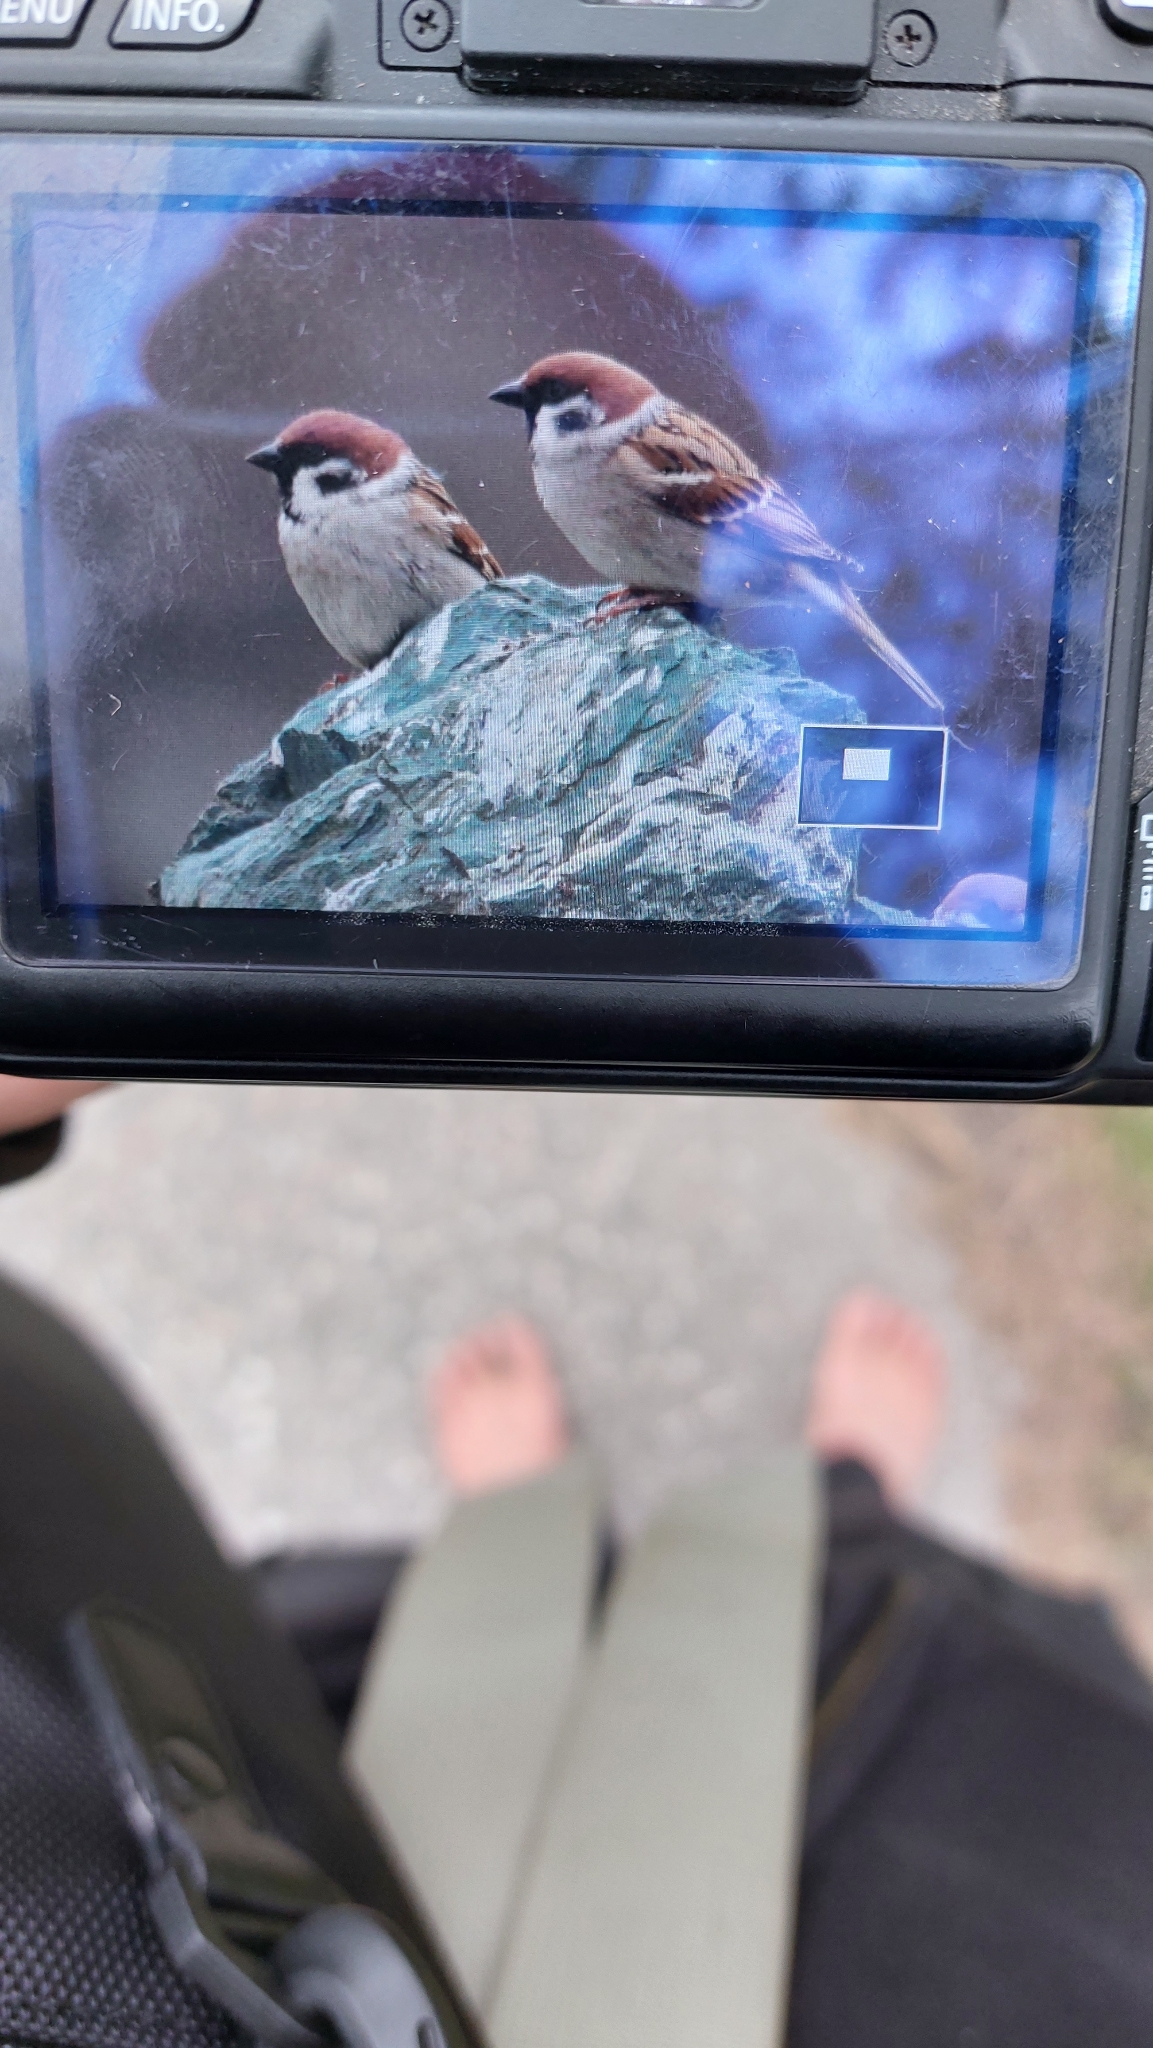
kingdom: Animalia
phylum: Chordata
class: Aves
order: Passeriformes
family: Passeridae
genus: Passer
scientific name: Passer montanus
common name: Eurasian tree sparrow
